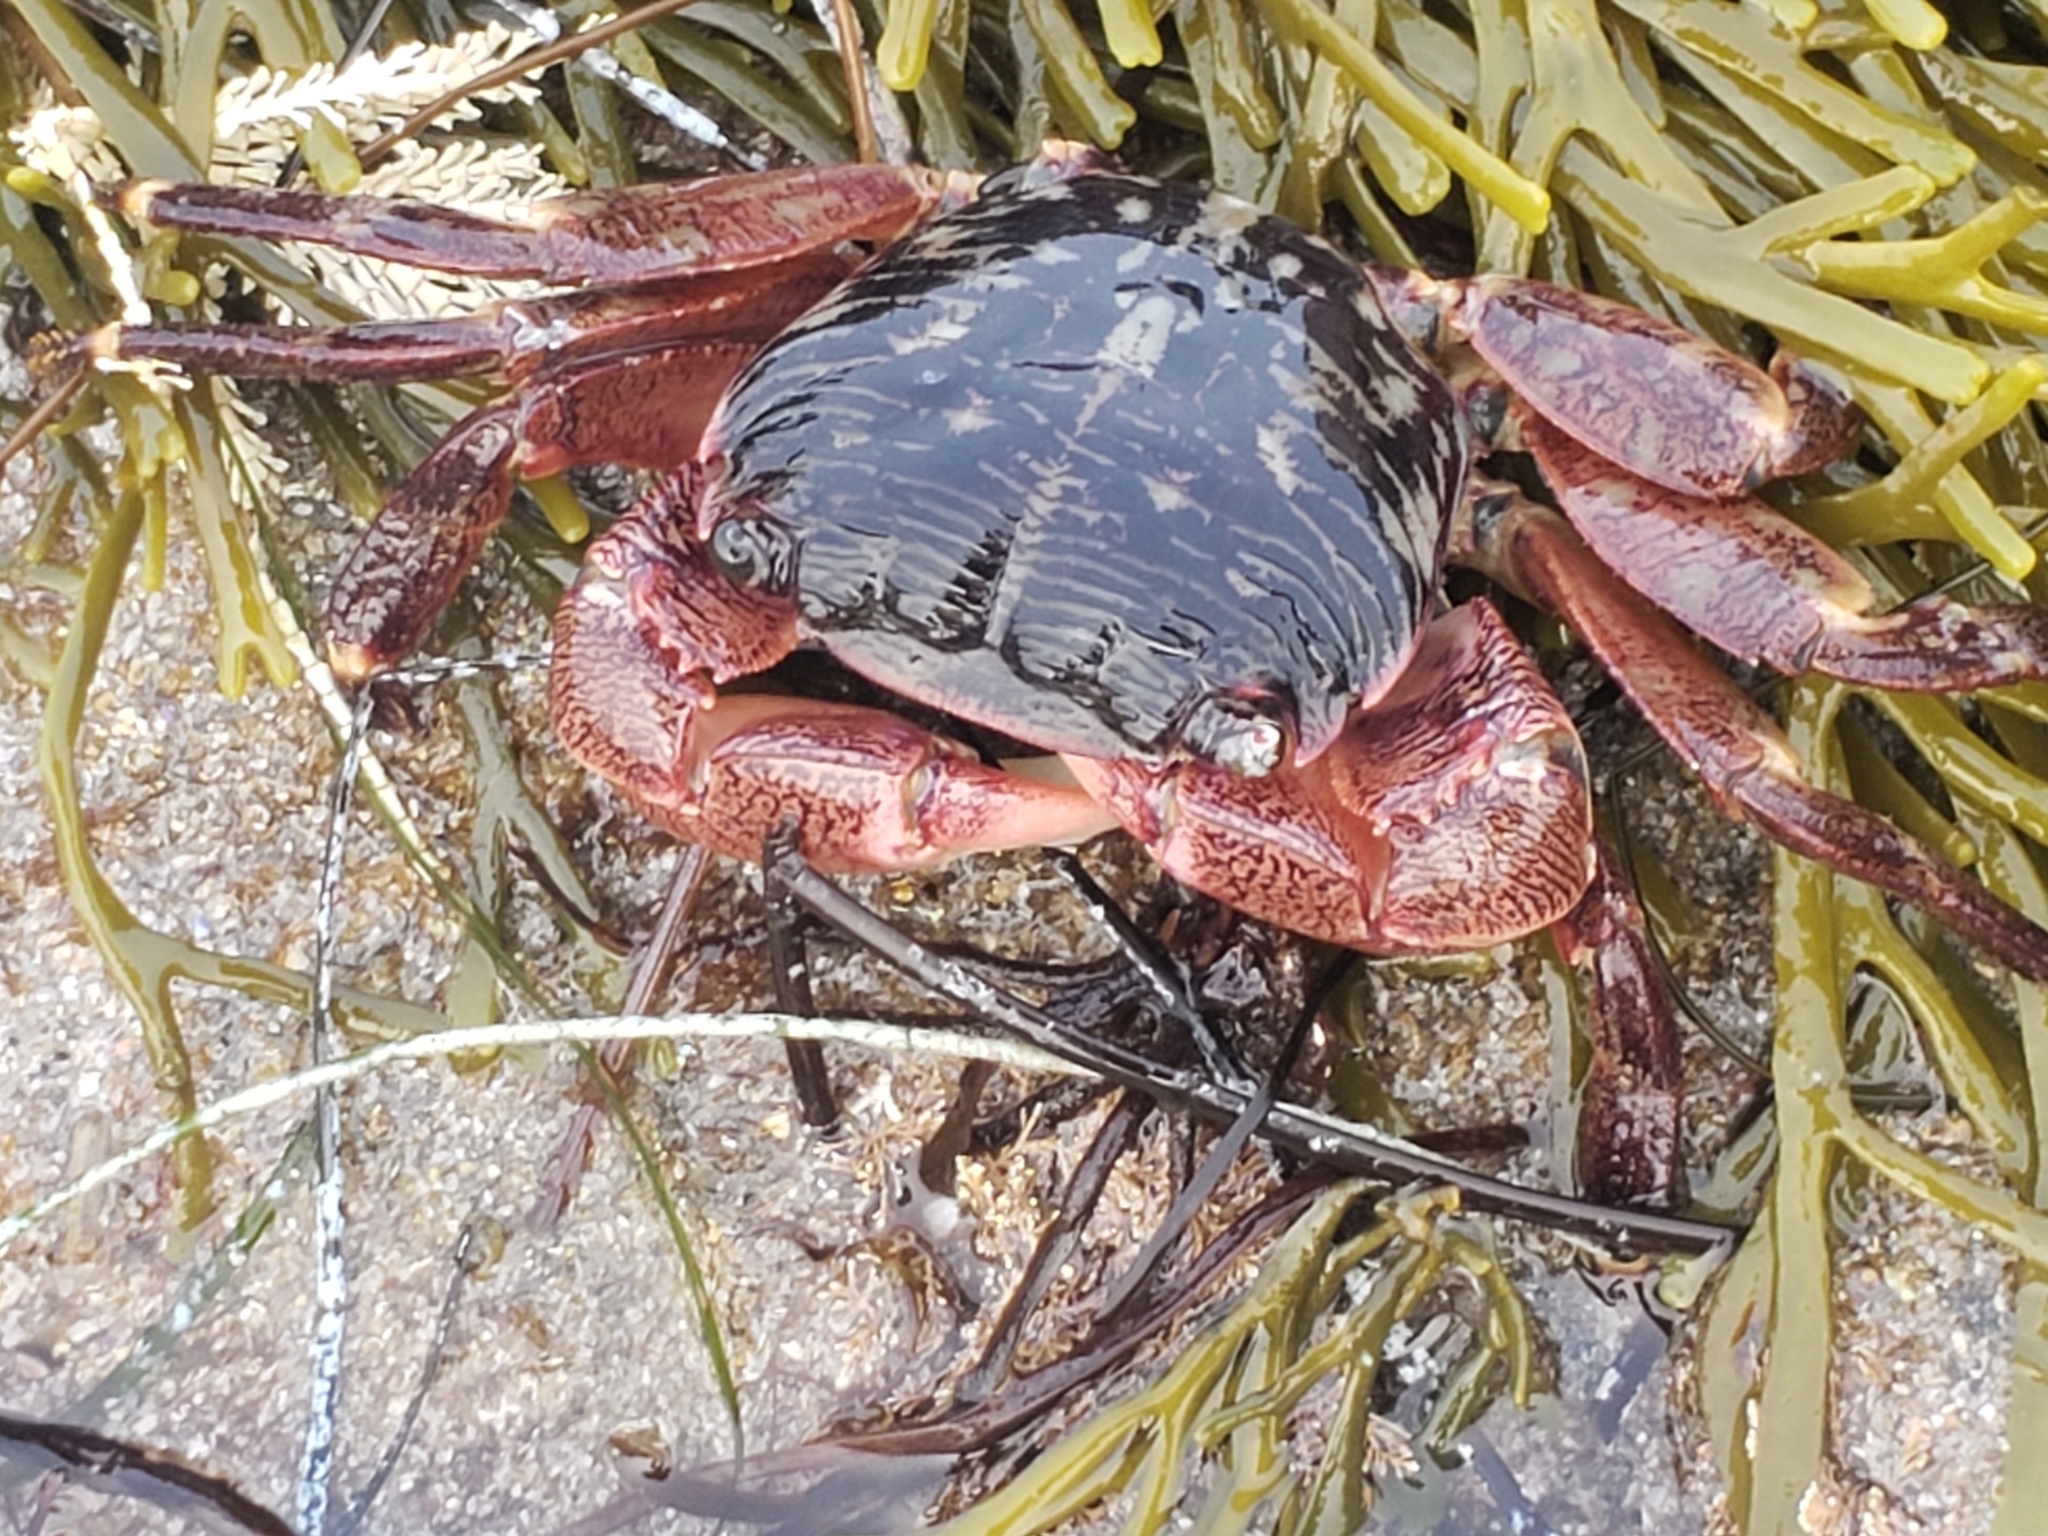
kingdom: Animalia
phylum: Arthropoda
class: Malacostraca
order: Decapoda
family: Grapsidae
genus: Pachygrapsus
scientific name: Pachygrapsus crassipes
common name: Striped shore crab
